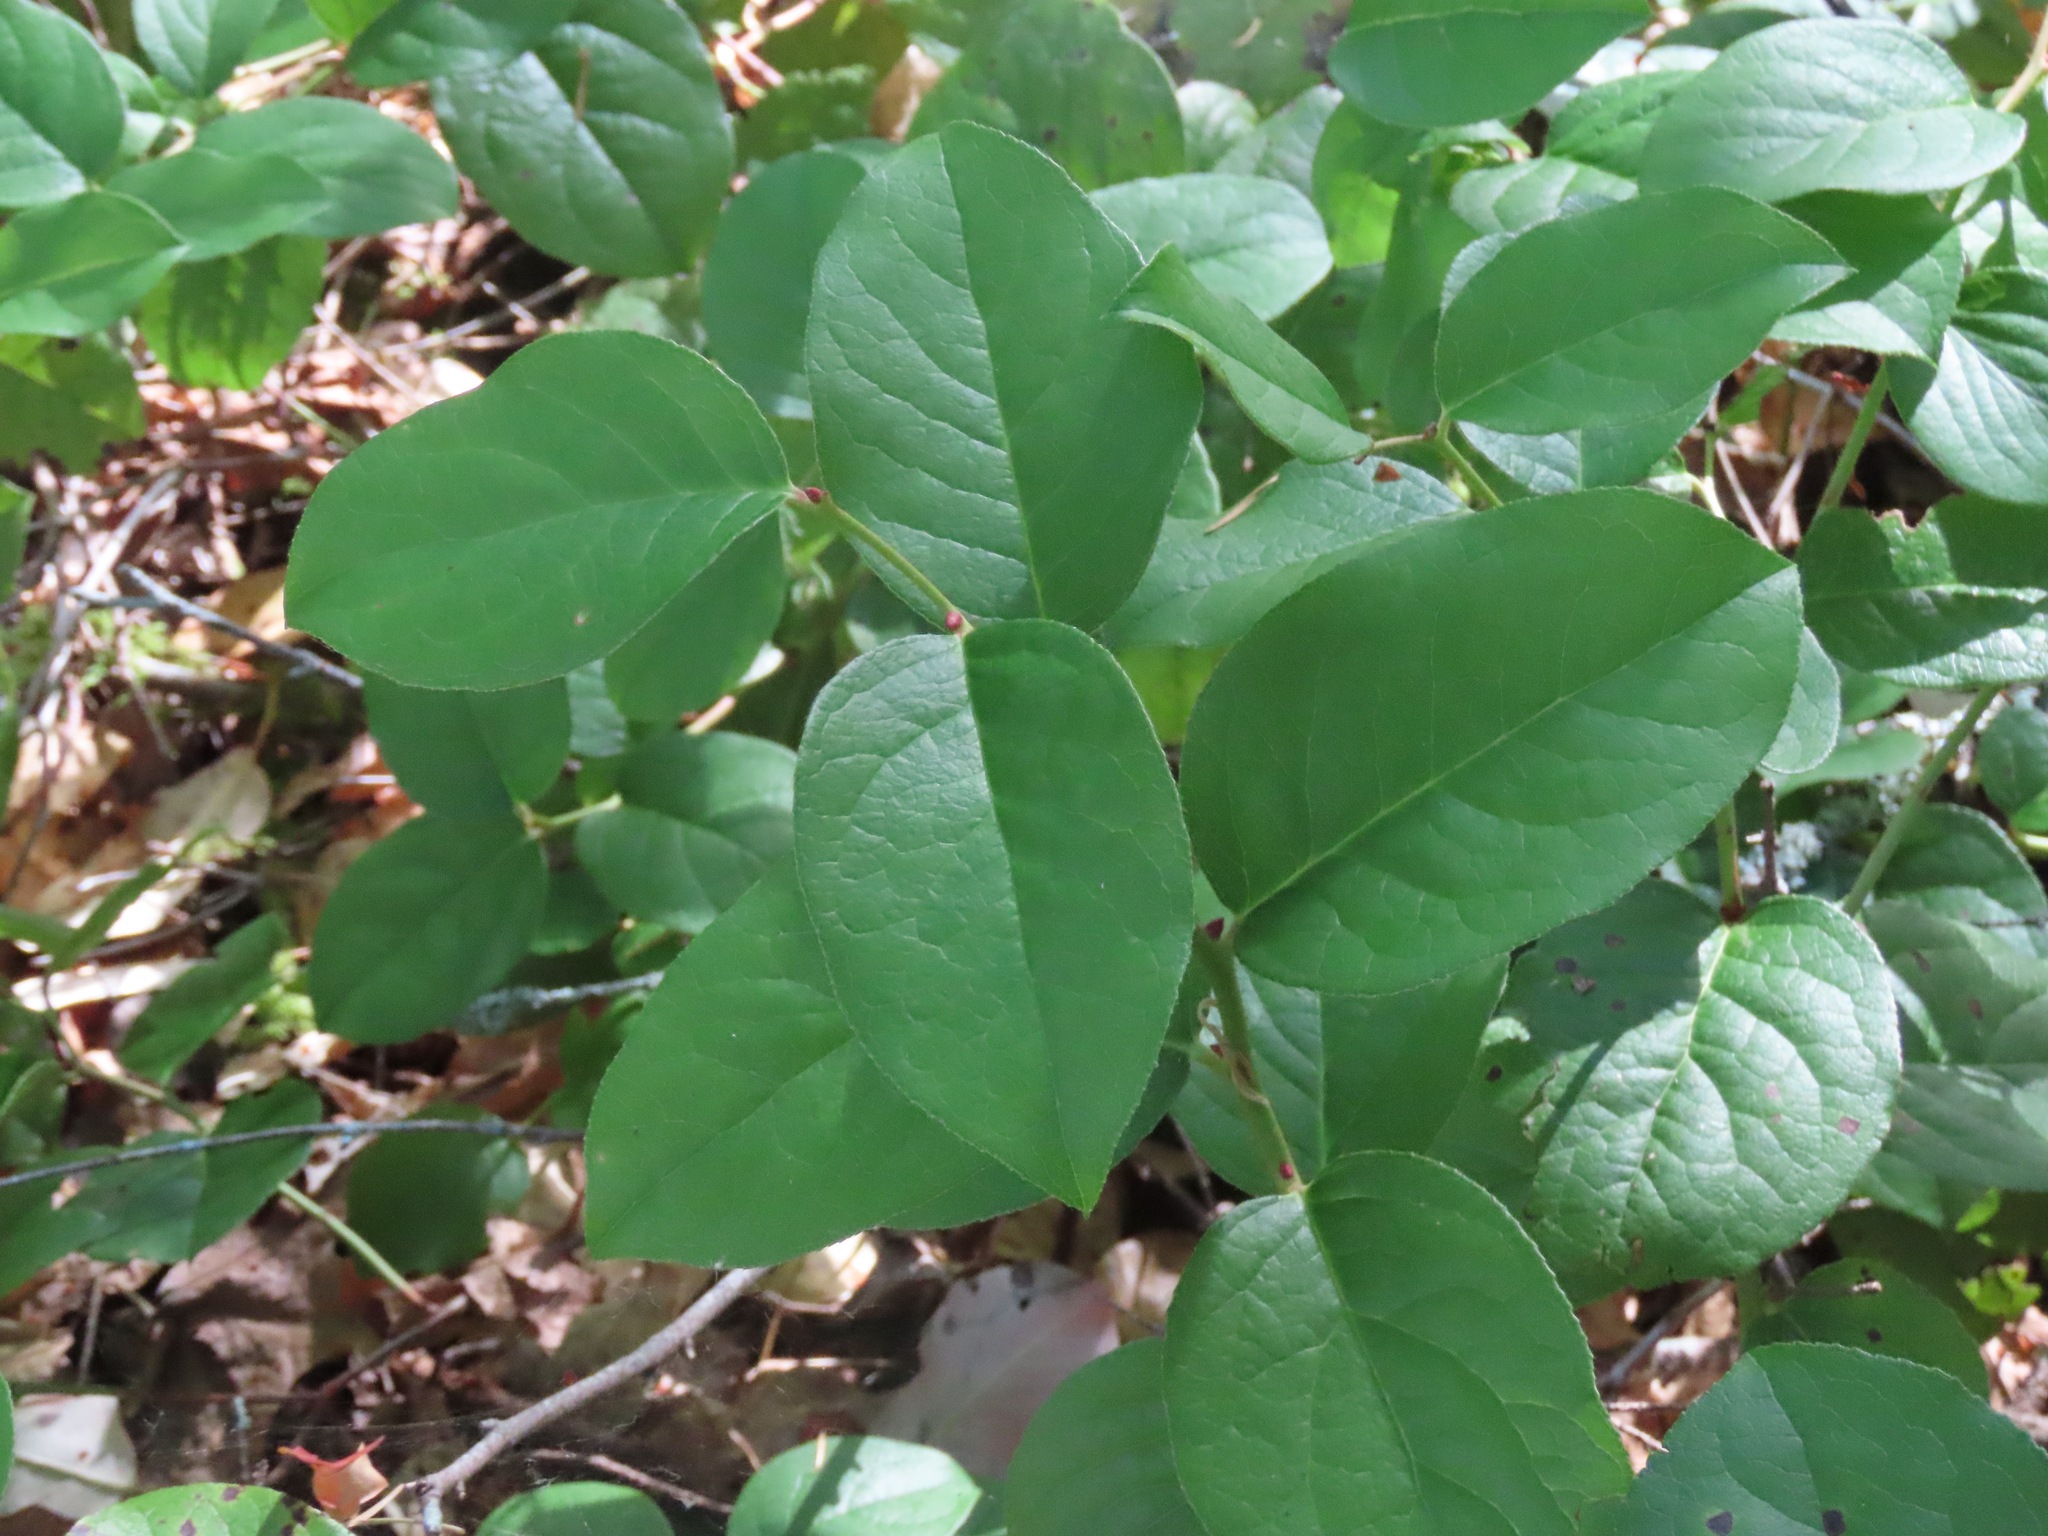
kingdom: Plantae
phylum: Tracheophyta
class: Magnoliopsida
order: Ericales
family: Ericaceae
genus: Gaultheria
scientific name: Gaultheria shallon
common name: Shallon
